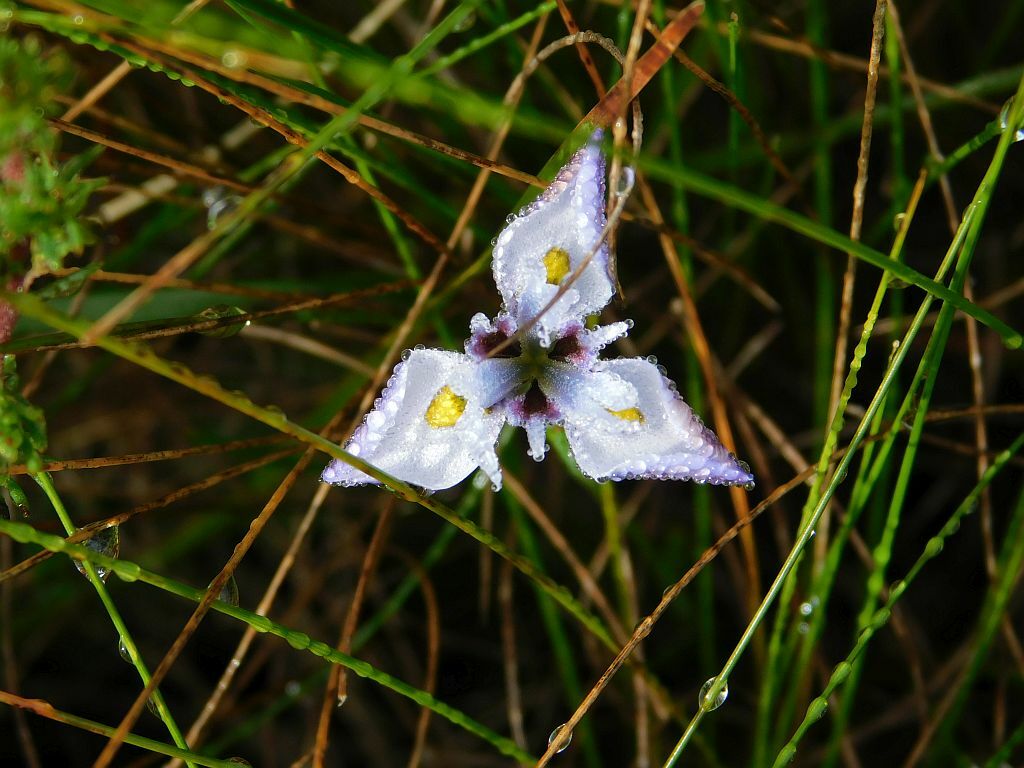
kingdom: Plantae
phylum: Tracheophyta
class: Liliopsida
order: Asparagales
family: Iridaceae
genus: Moraea
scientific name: Moraea fergusoniae
